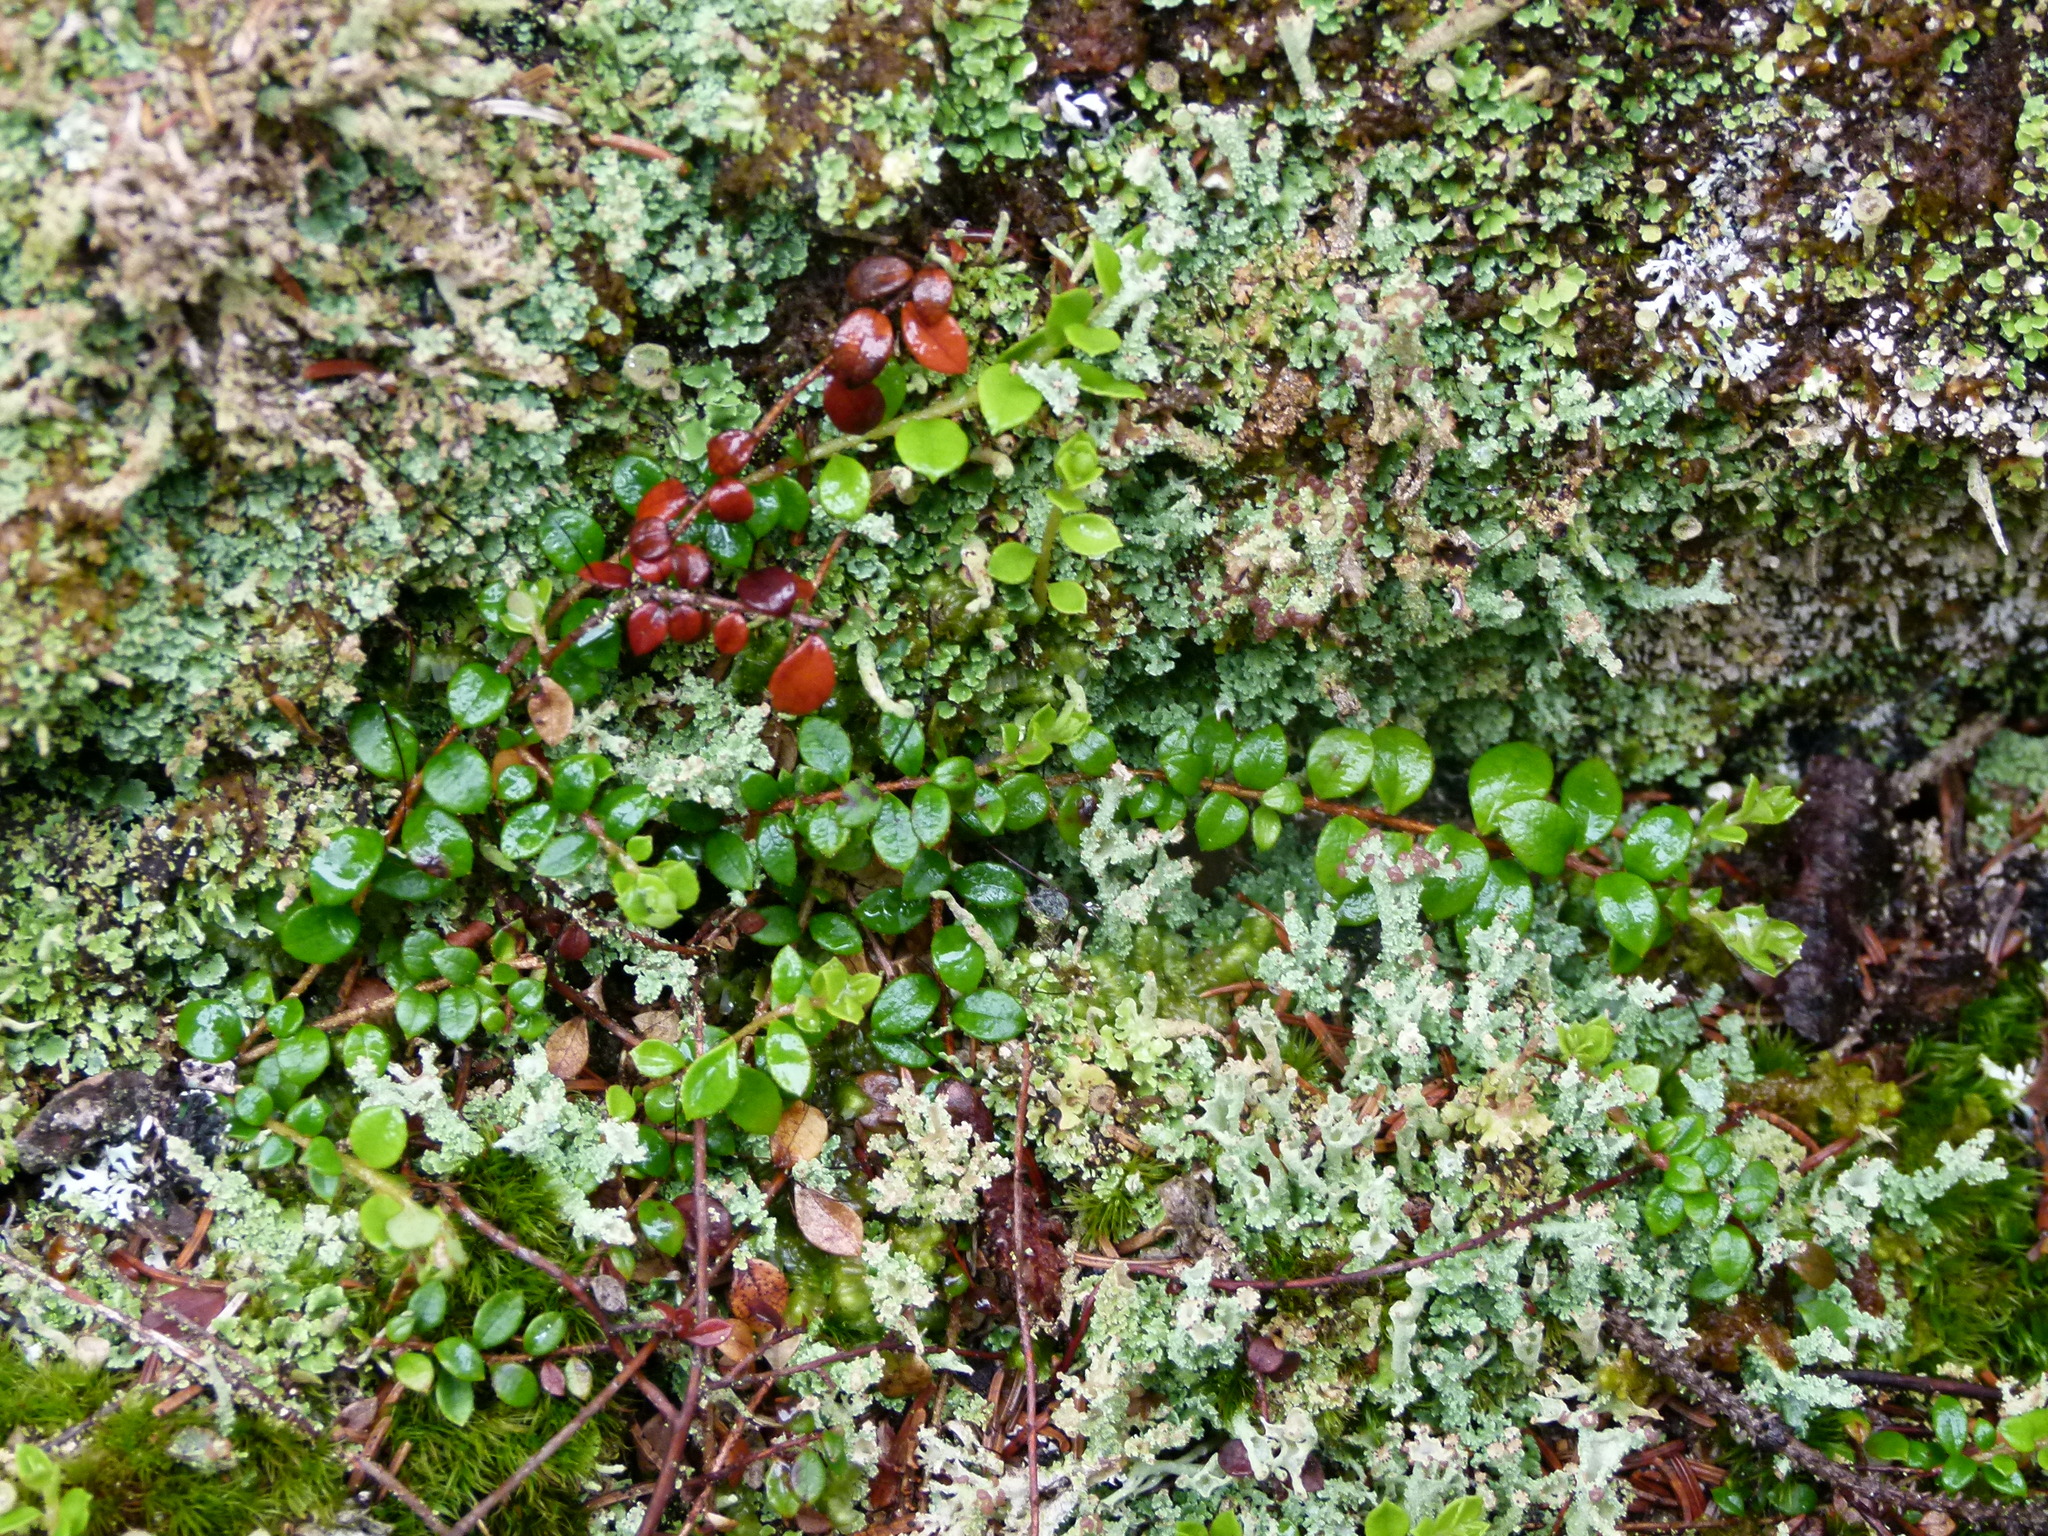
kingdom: Plantae
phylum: Tracheophyta
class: Magnoliopsida
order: Ericales
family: Ericaceae
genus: Gaultheria
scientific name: Gaultheria hispidula
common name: Cancer wintergreen
